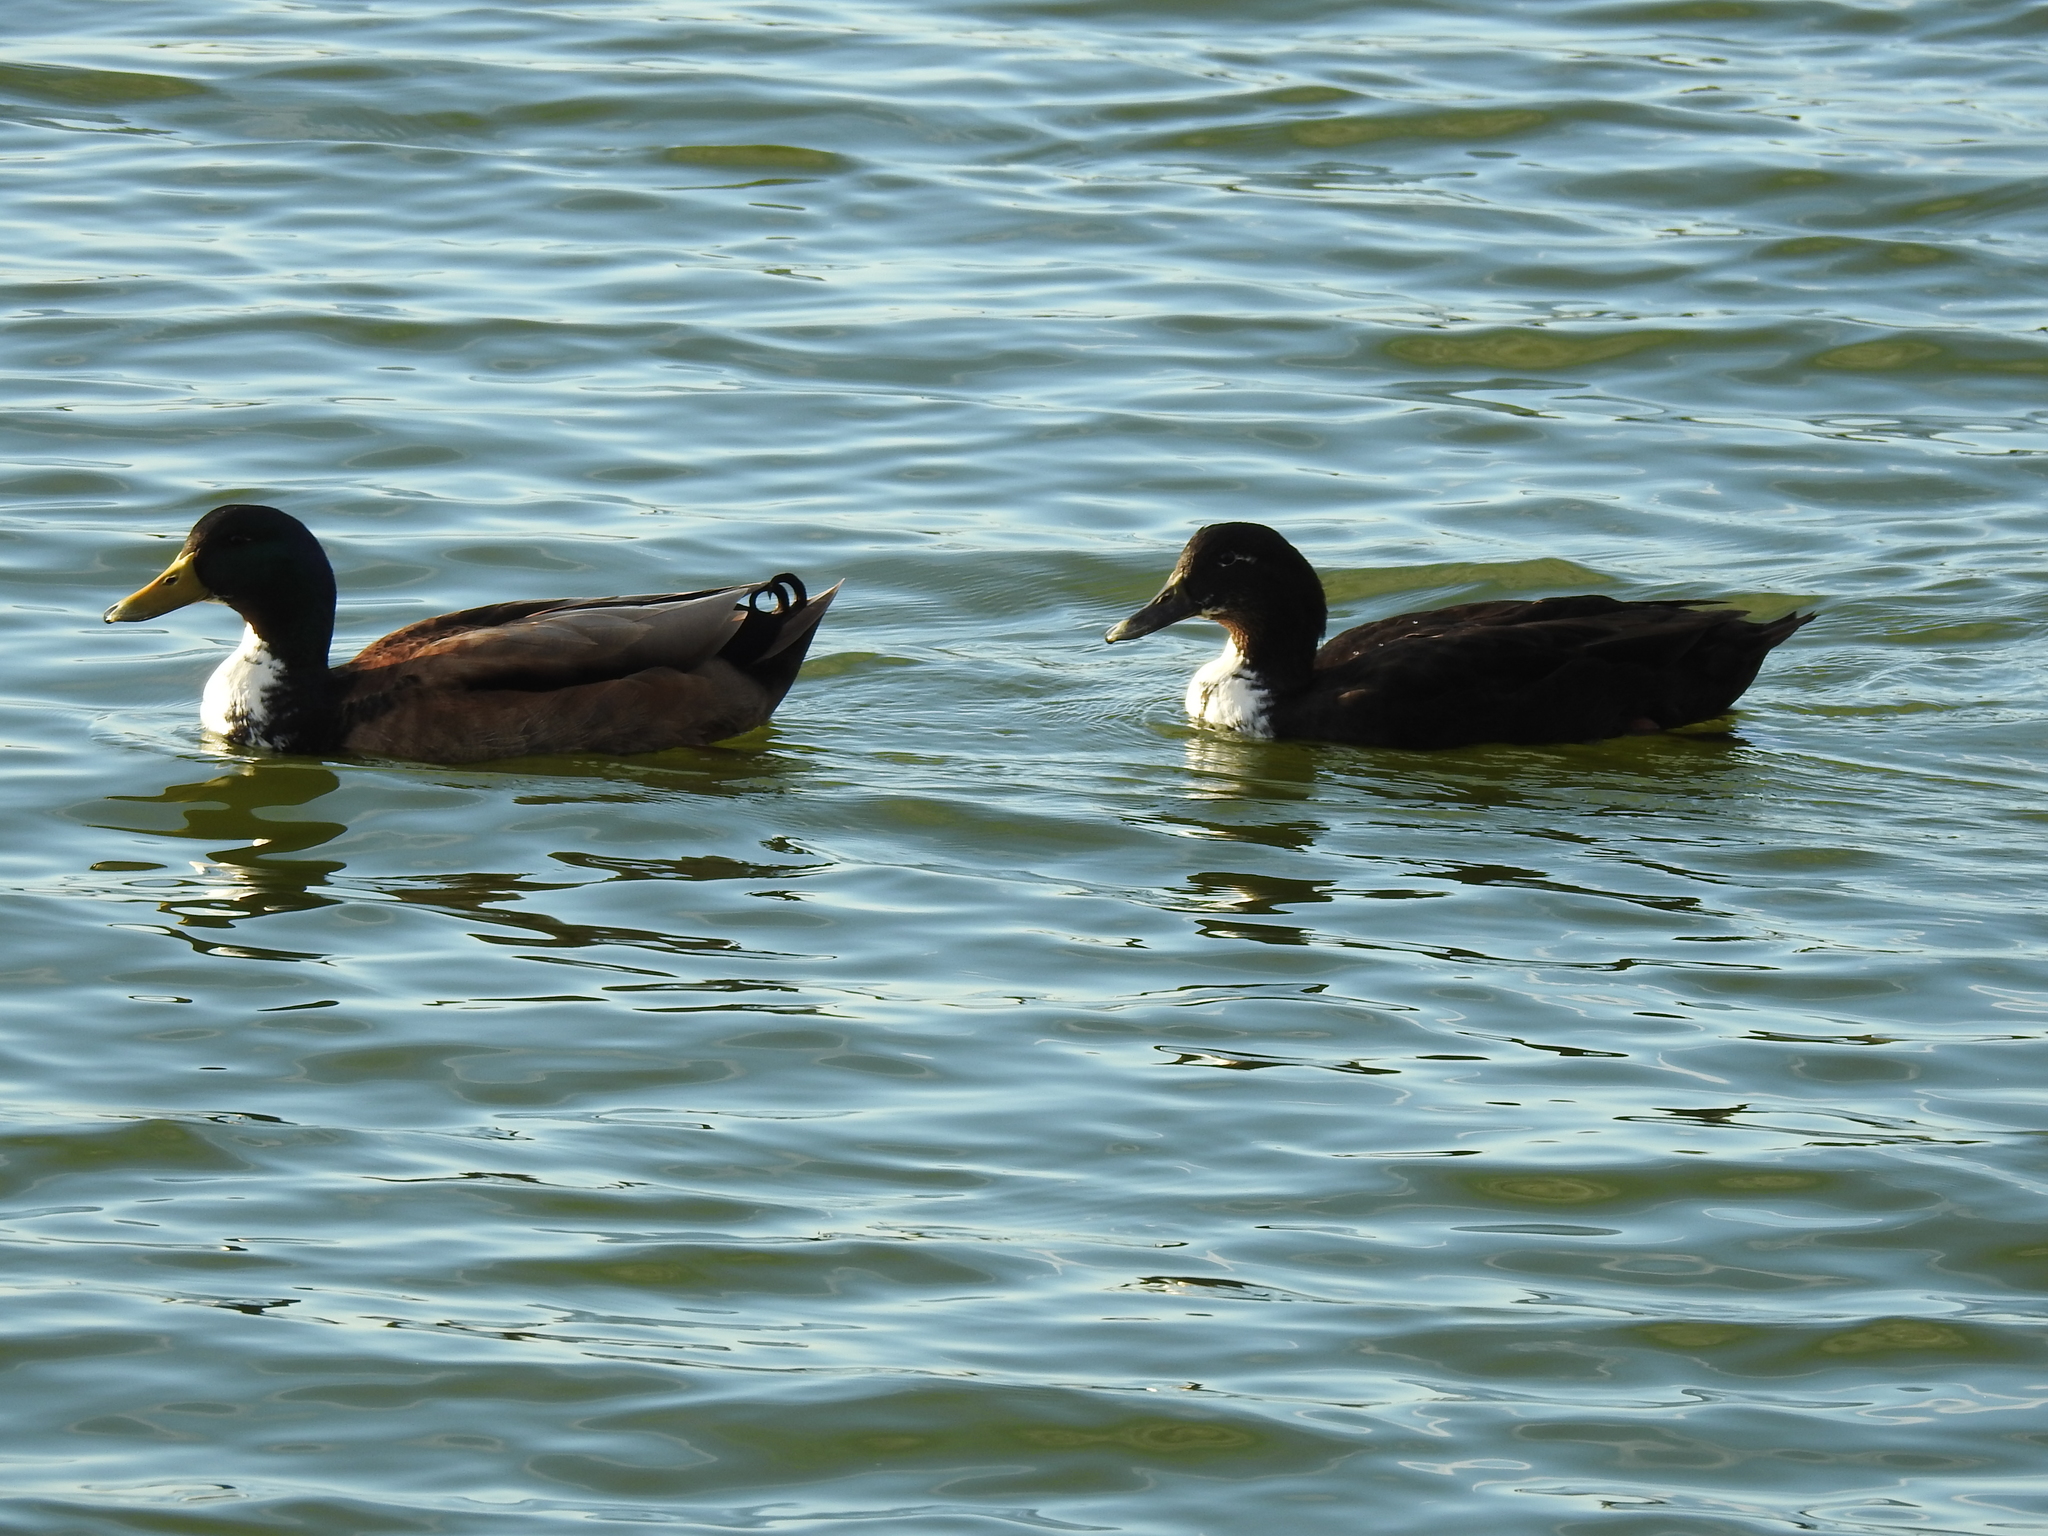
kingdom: Animalia
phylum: Chordata
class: Aves
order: Anseriformes
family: Anatidae
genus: Anas
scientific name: Anas platyrhynchos
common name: Mallard
